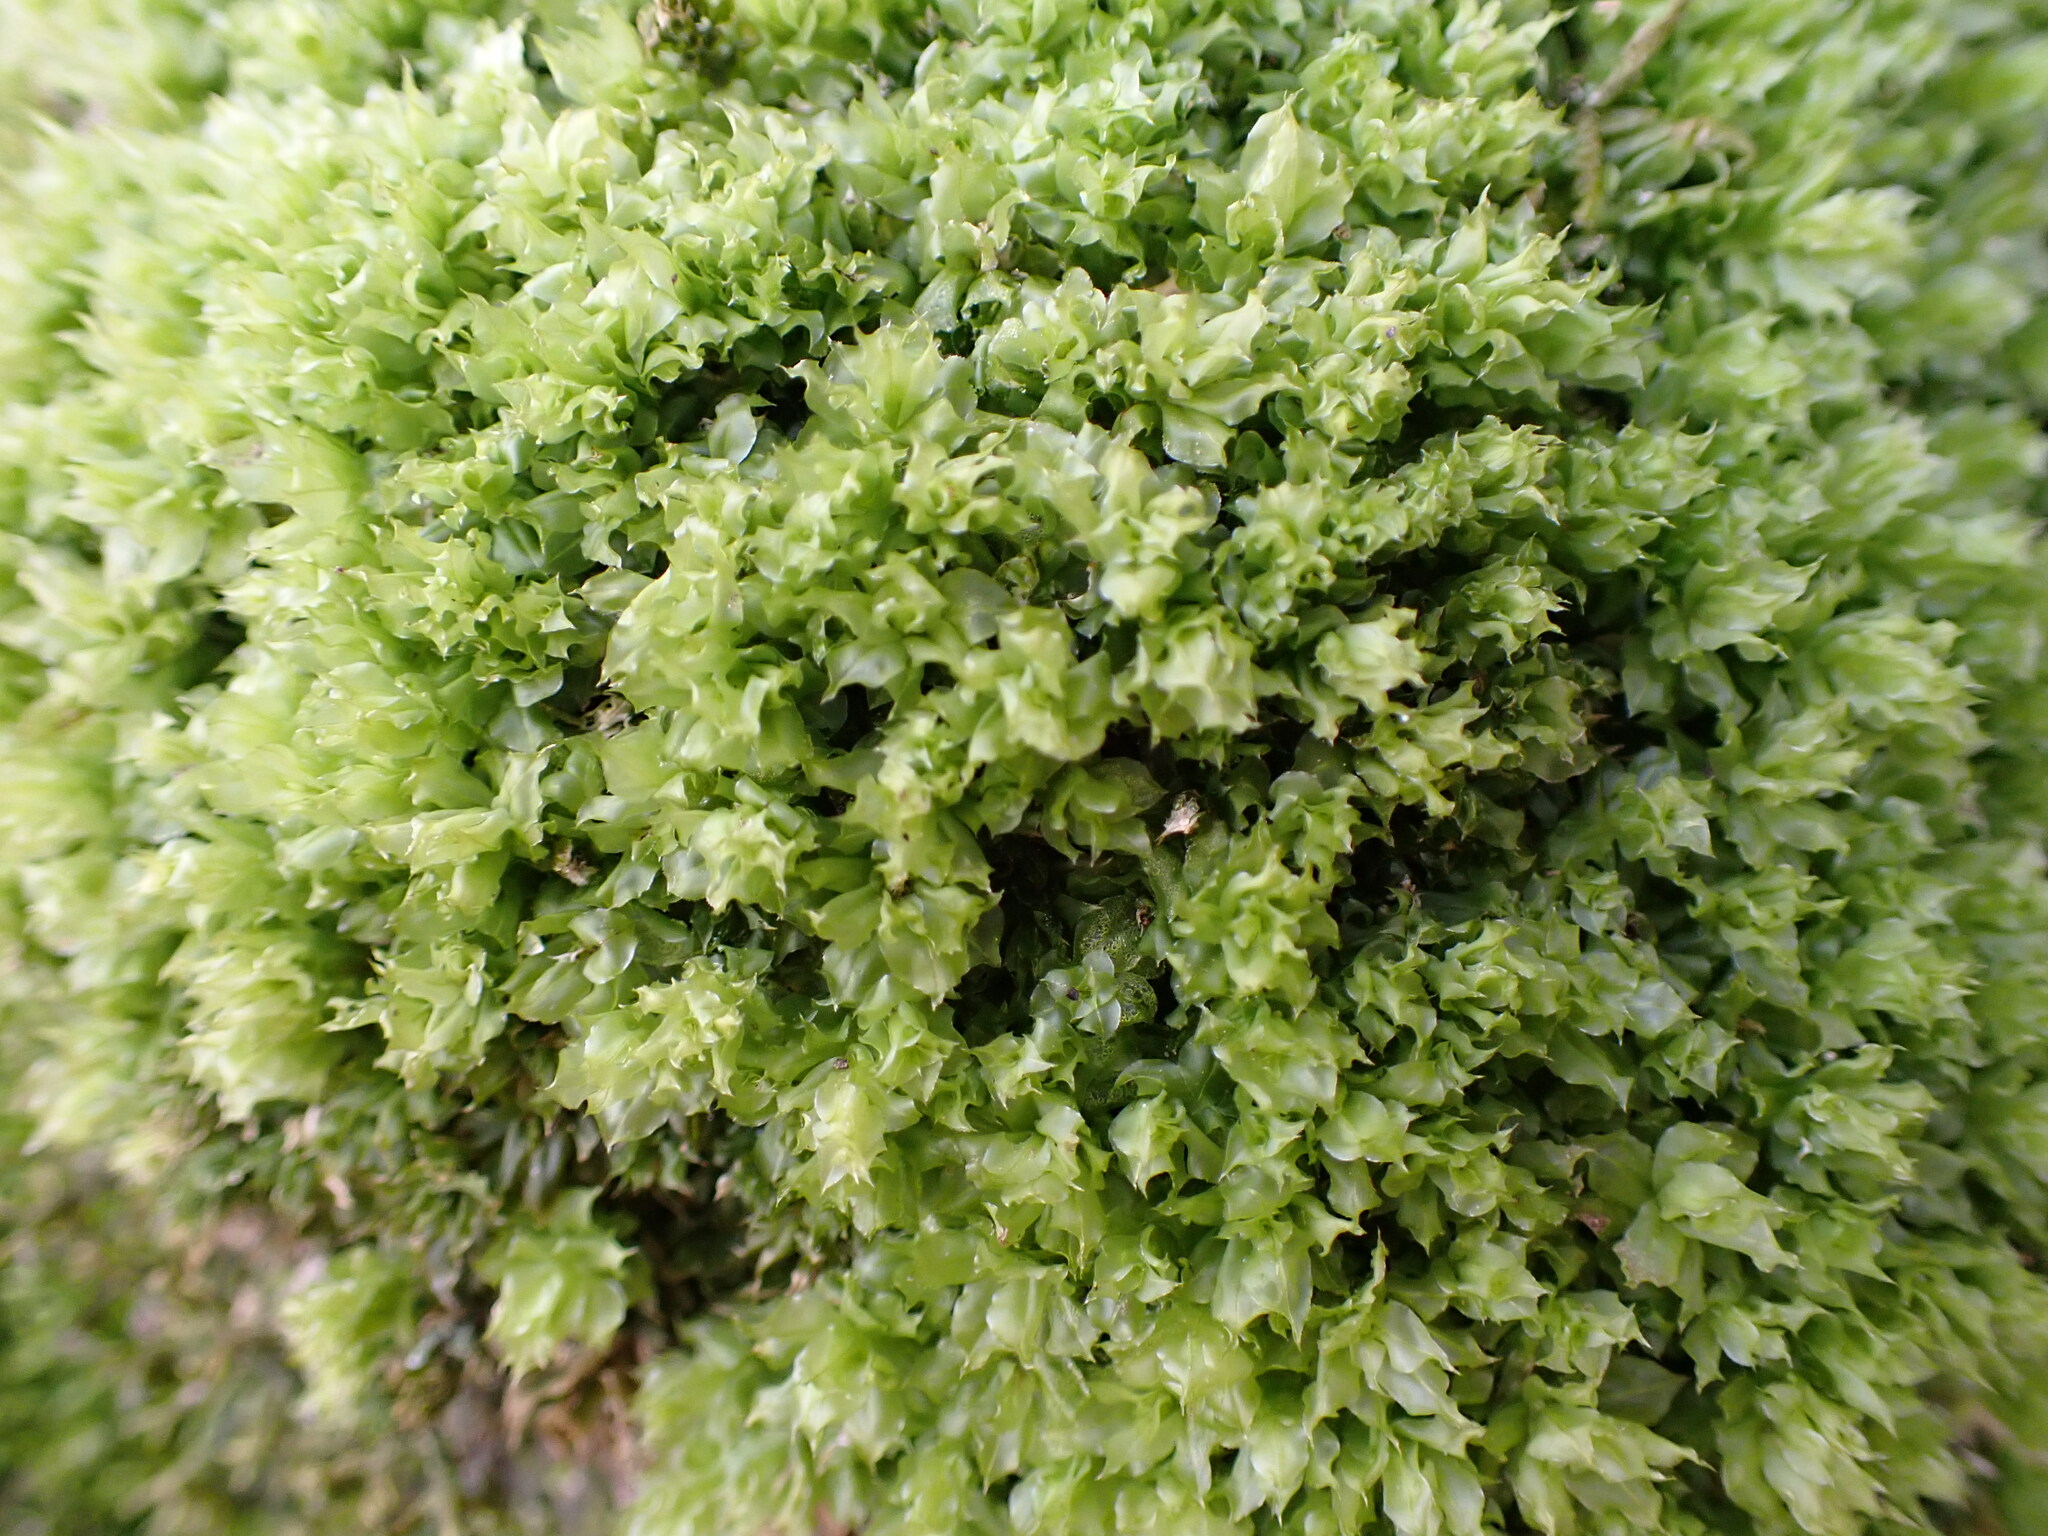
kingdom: Plantae
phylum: Bryophyta
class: Bryopsida
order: Bryales
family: Mniaceae
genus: Plagiomnium
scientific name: Plagiomnium venustum
